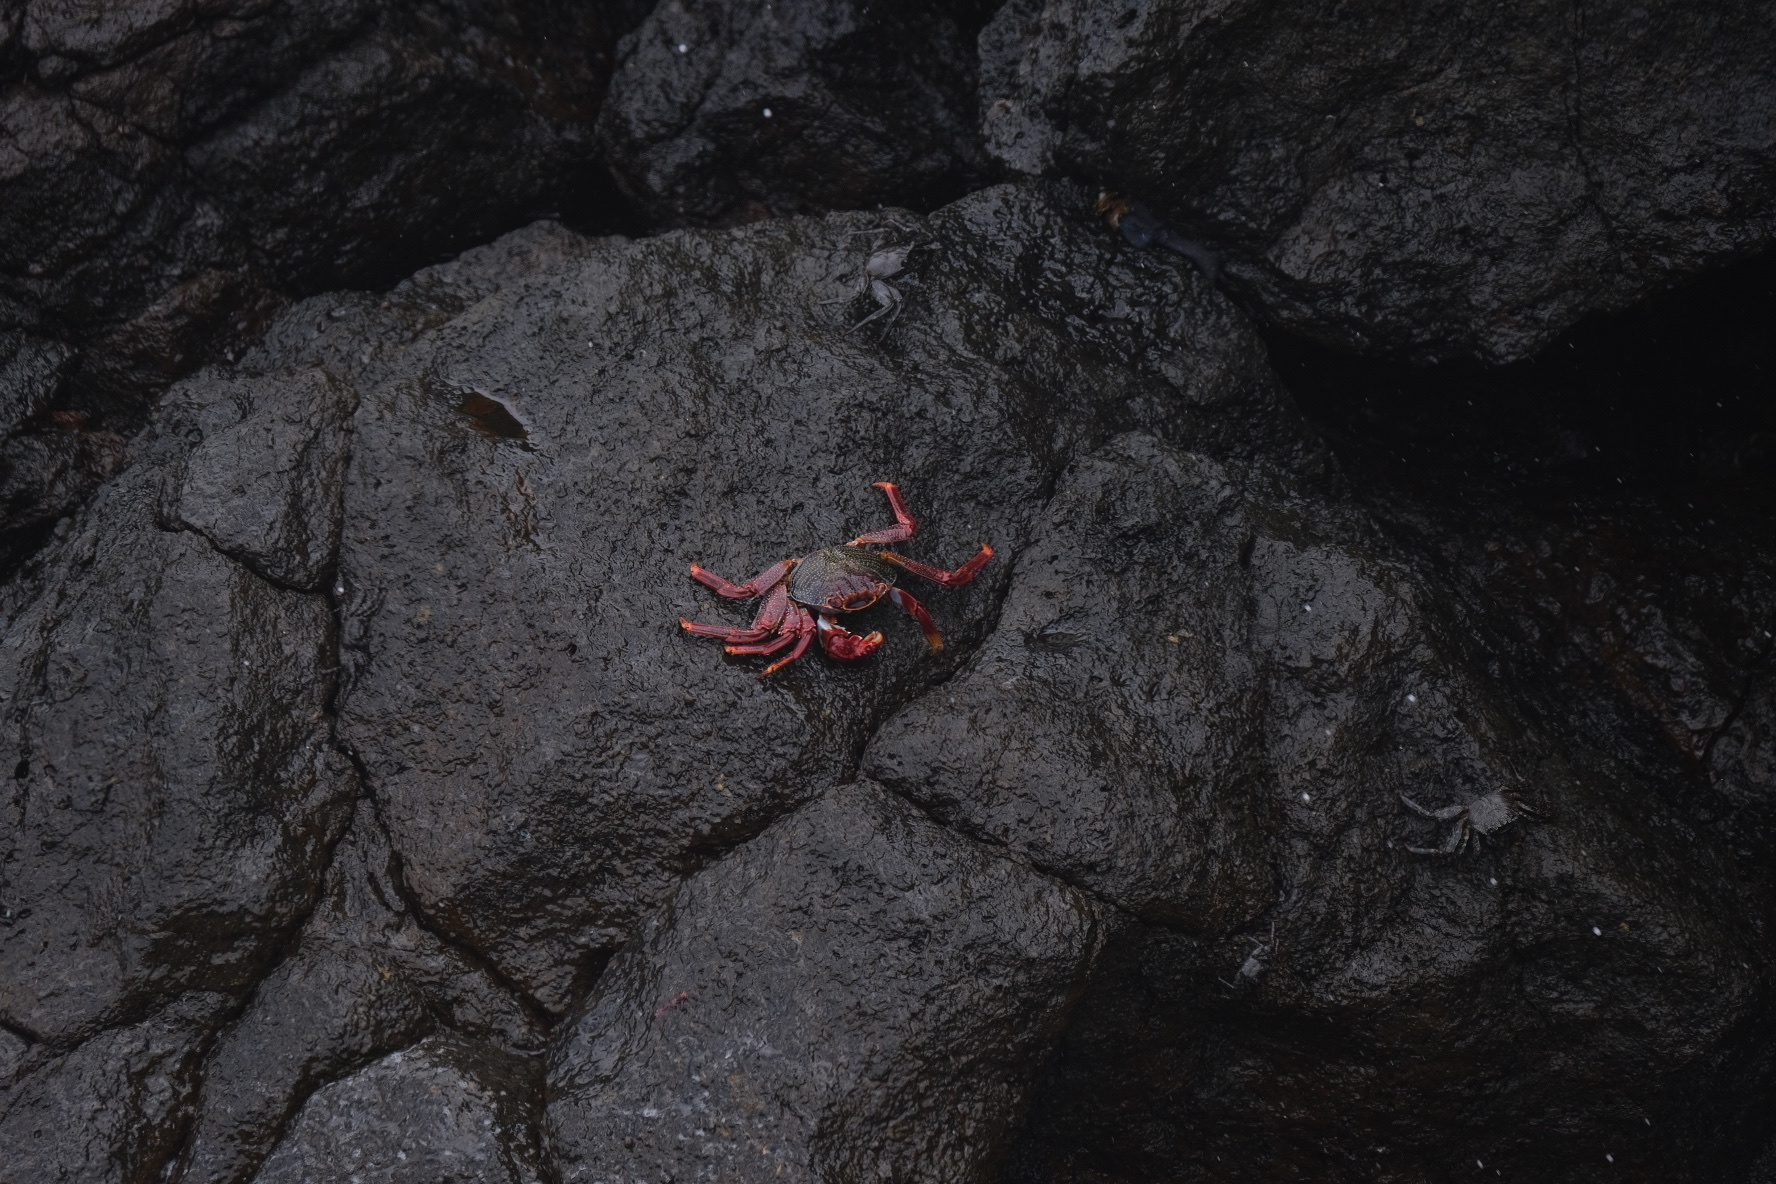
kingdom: Animalia
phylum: Arthropoda
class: Malacostraca
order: Decapoda
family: Grapsidae
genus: Grapsus
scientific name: Grapsus adscensionis
